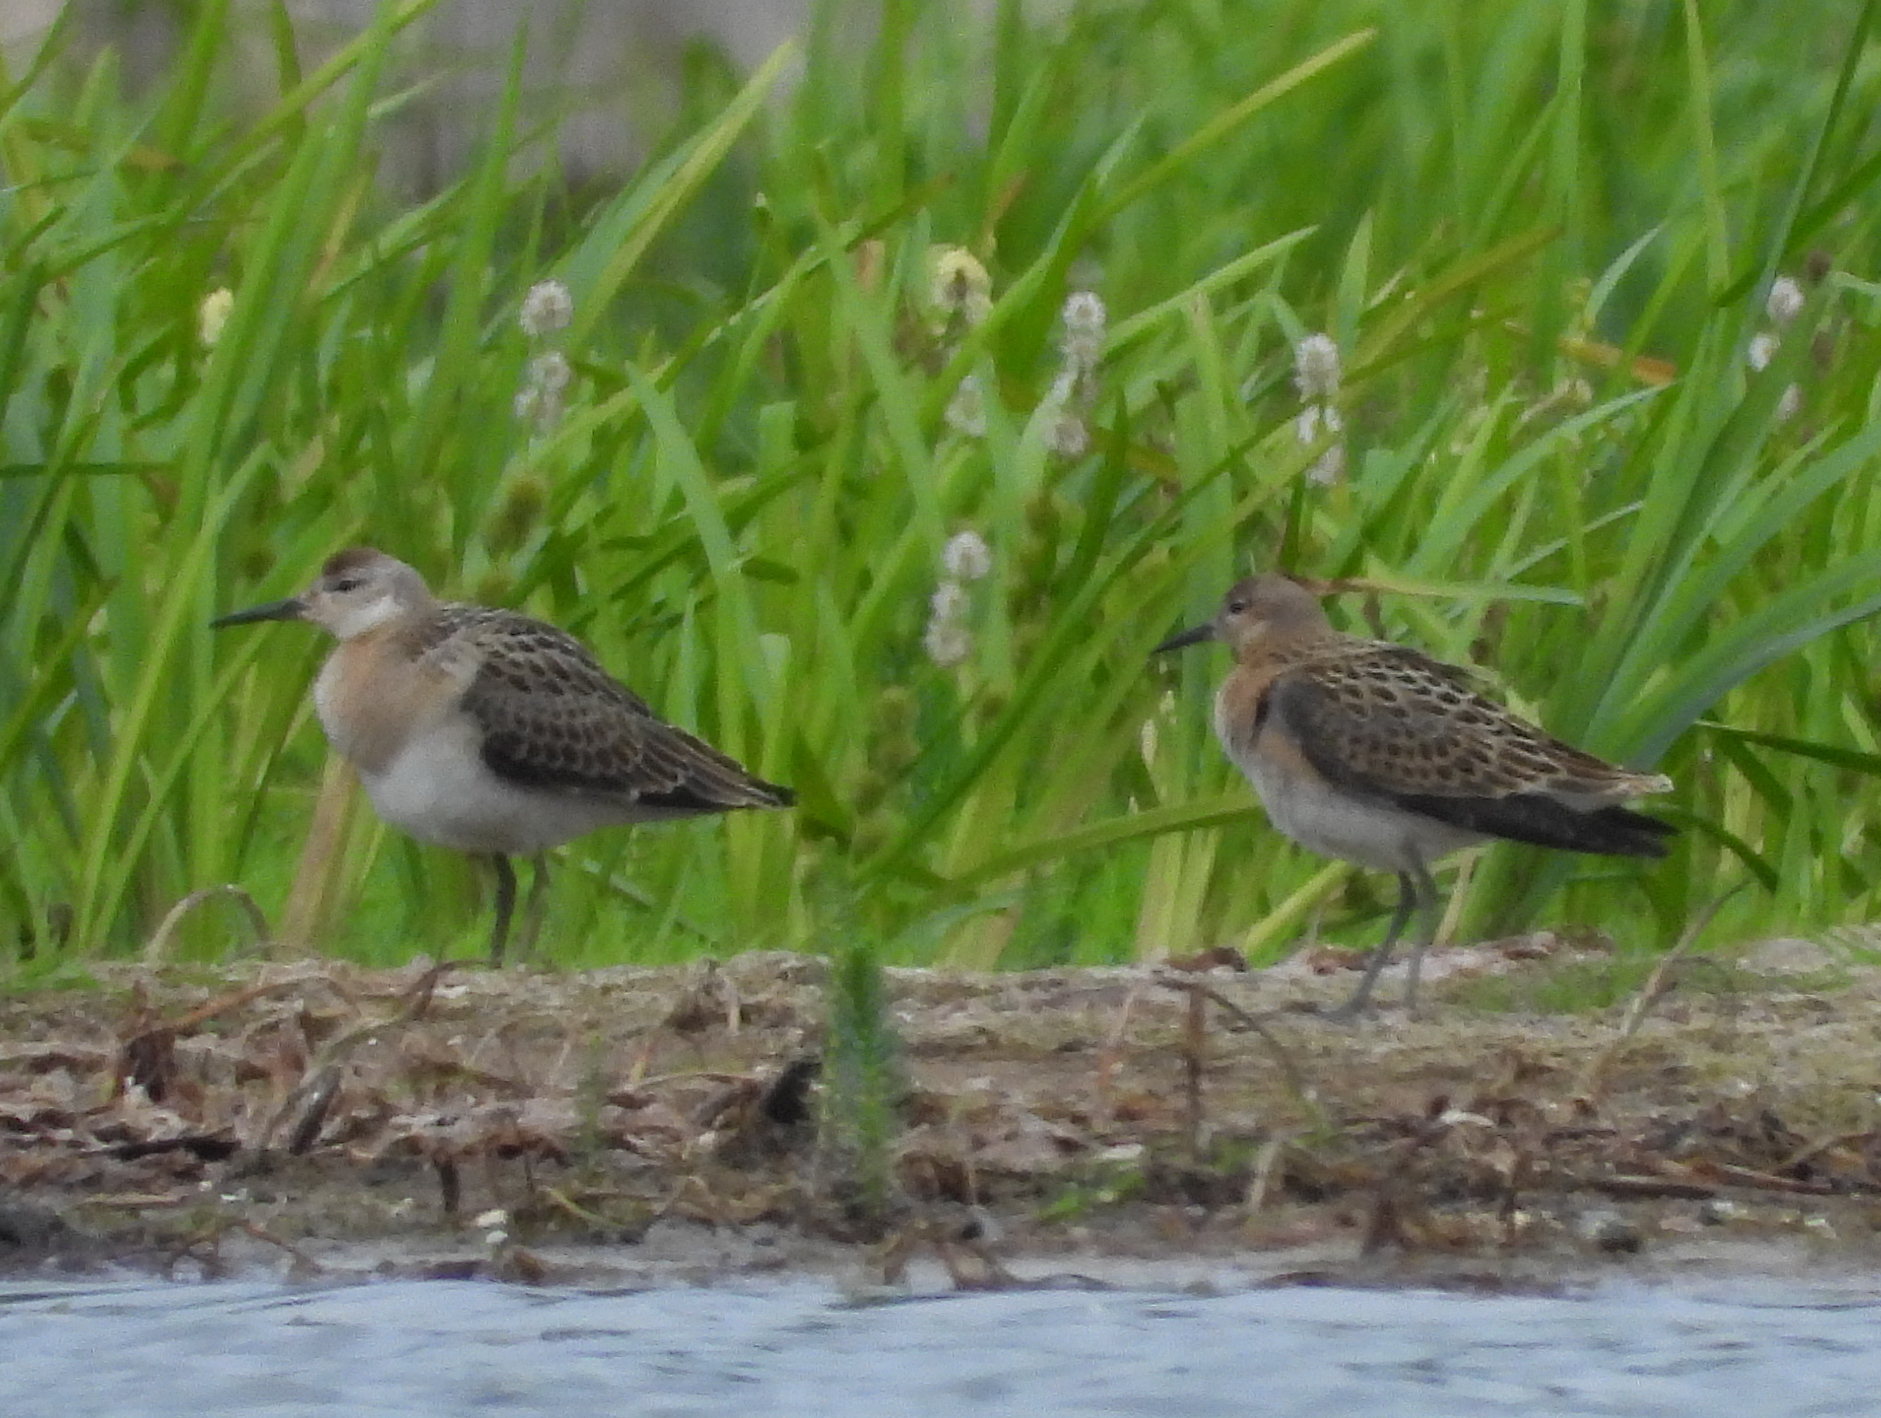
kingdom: Animalia
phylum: Chordata
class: Aves
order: Charadriiformes
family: Scolopacidae
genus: Calidris
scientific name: Calidris pugnax
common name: Ruff
